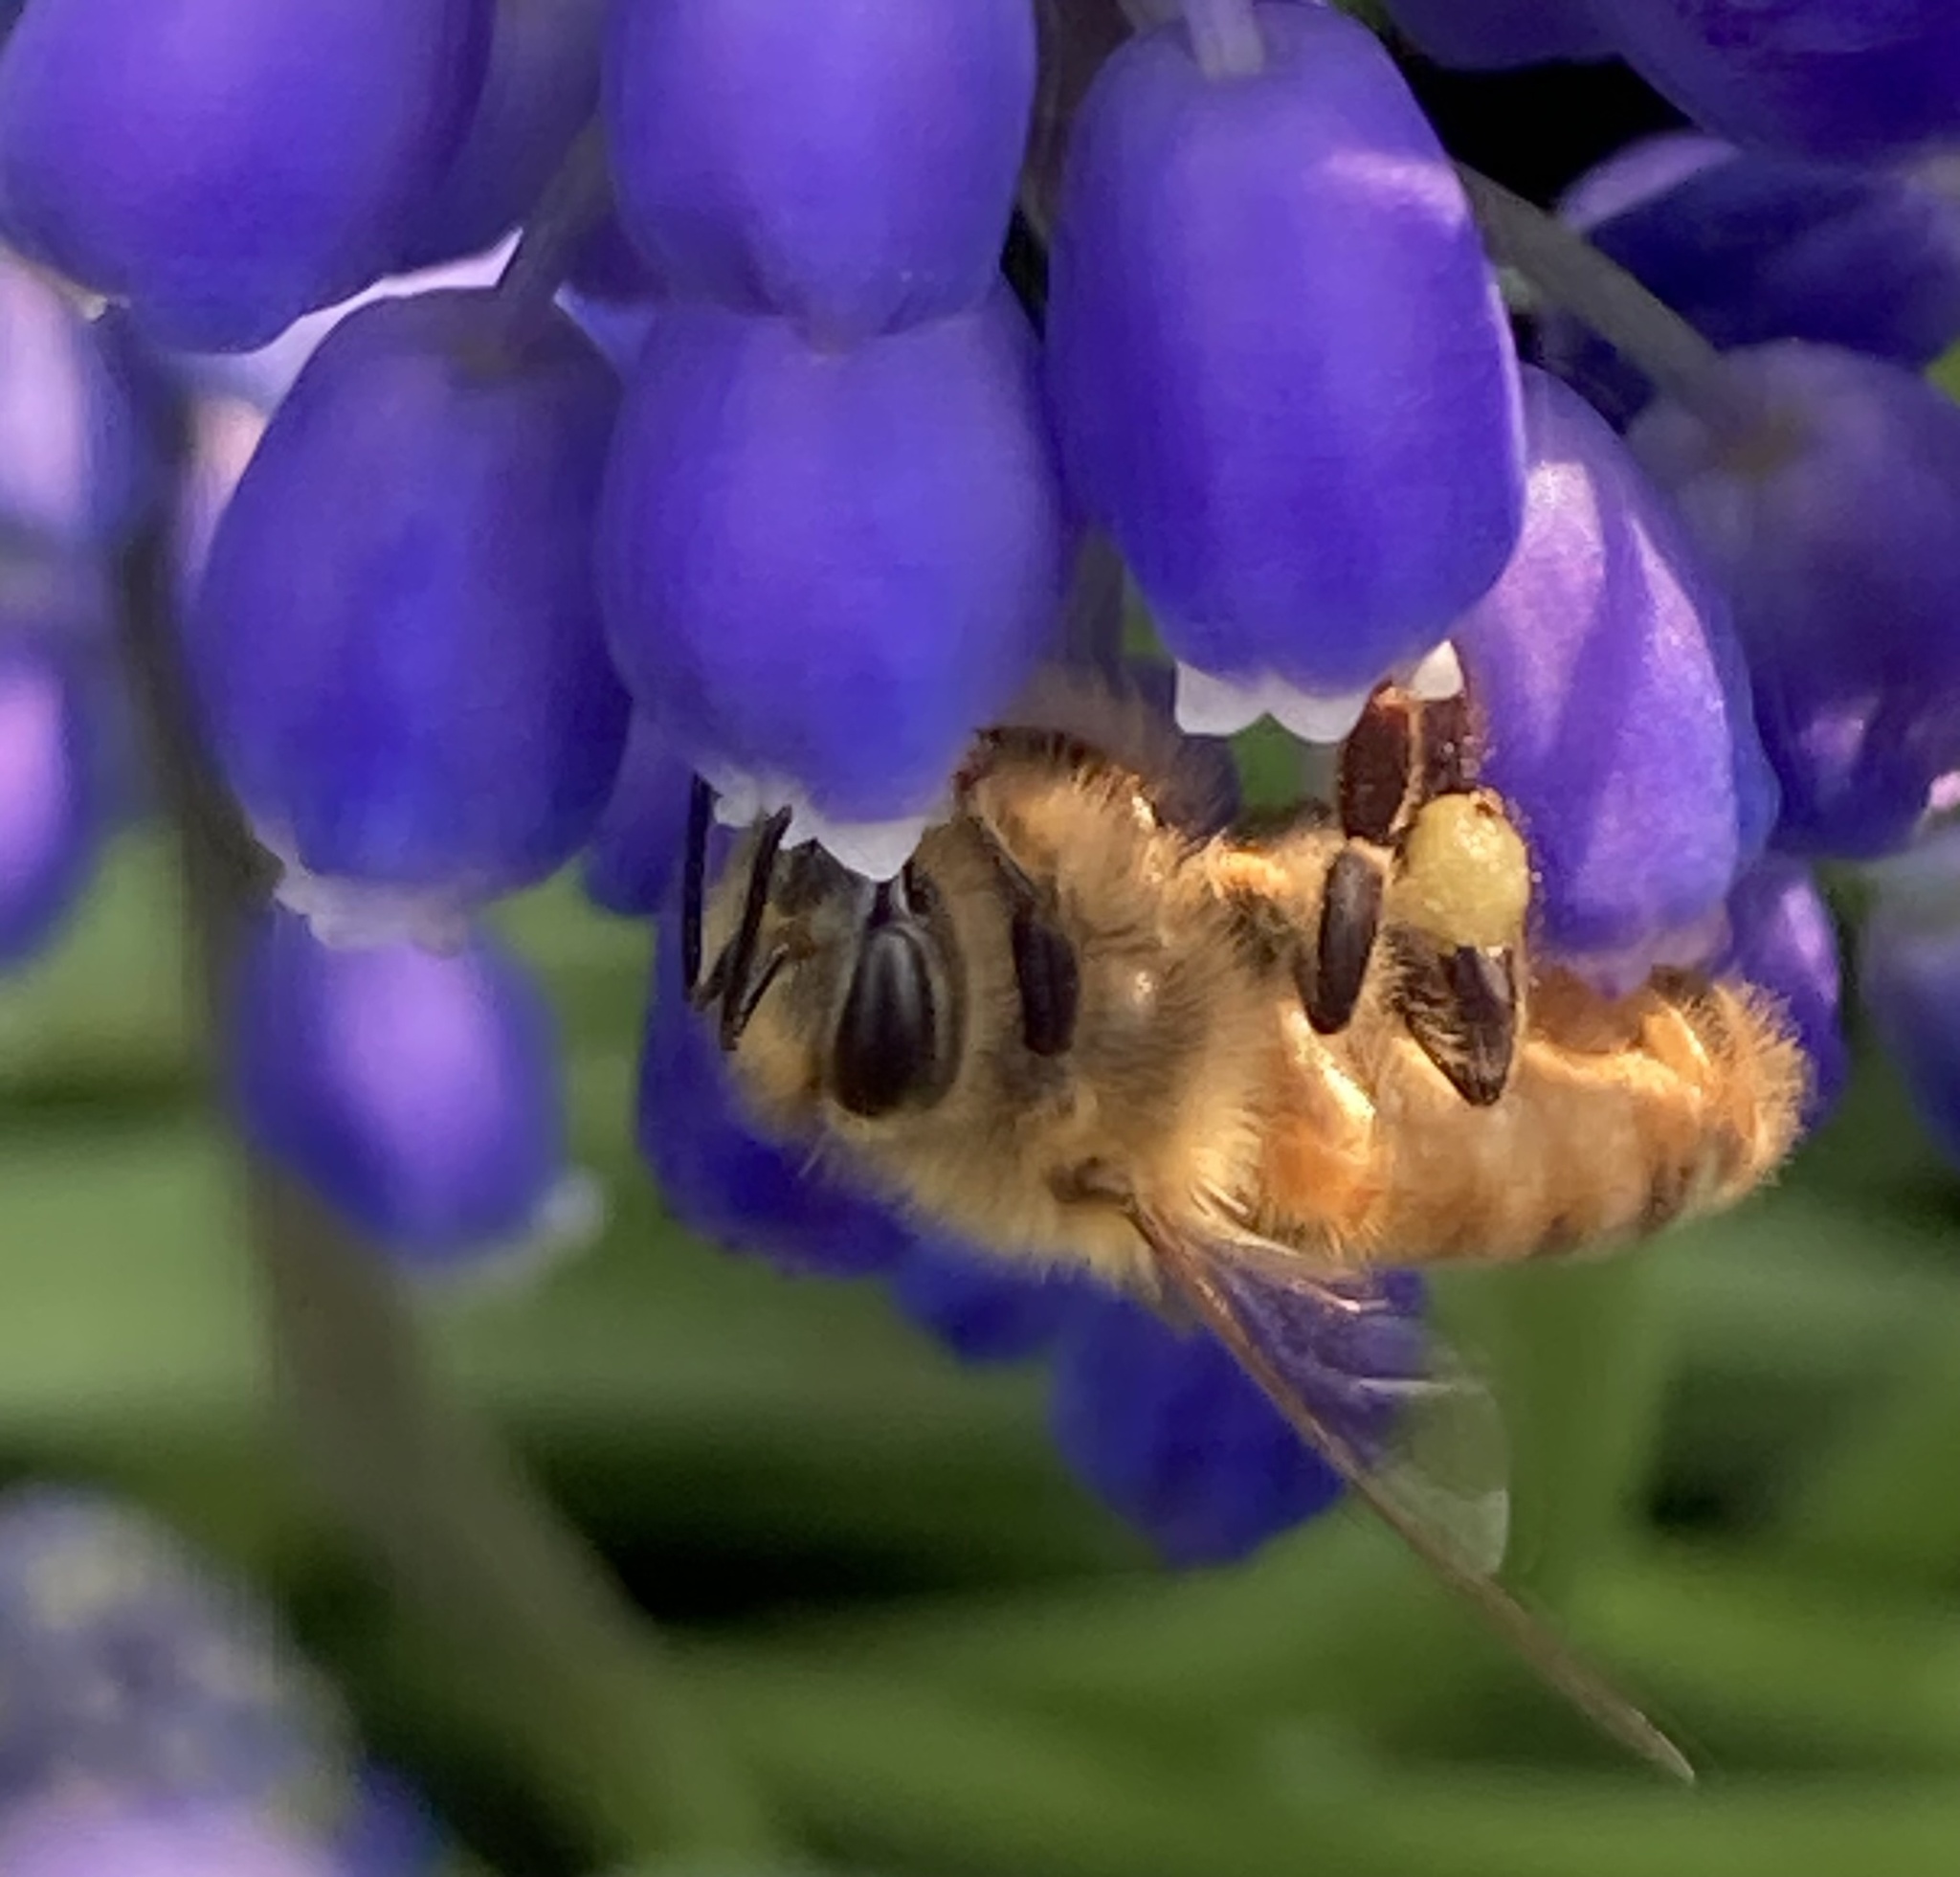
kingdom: Animalia
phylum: Arthropoda
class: Insecta
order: Hymenoptera
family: Apidae
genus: Apis
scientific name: Apis mellifera
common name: Honey bee
